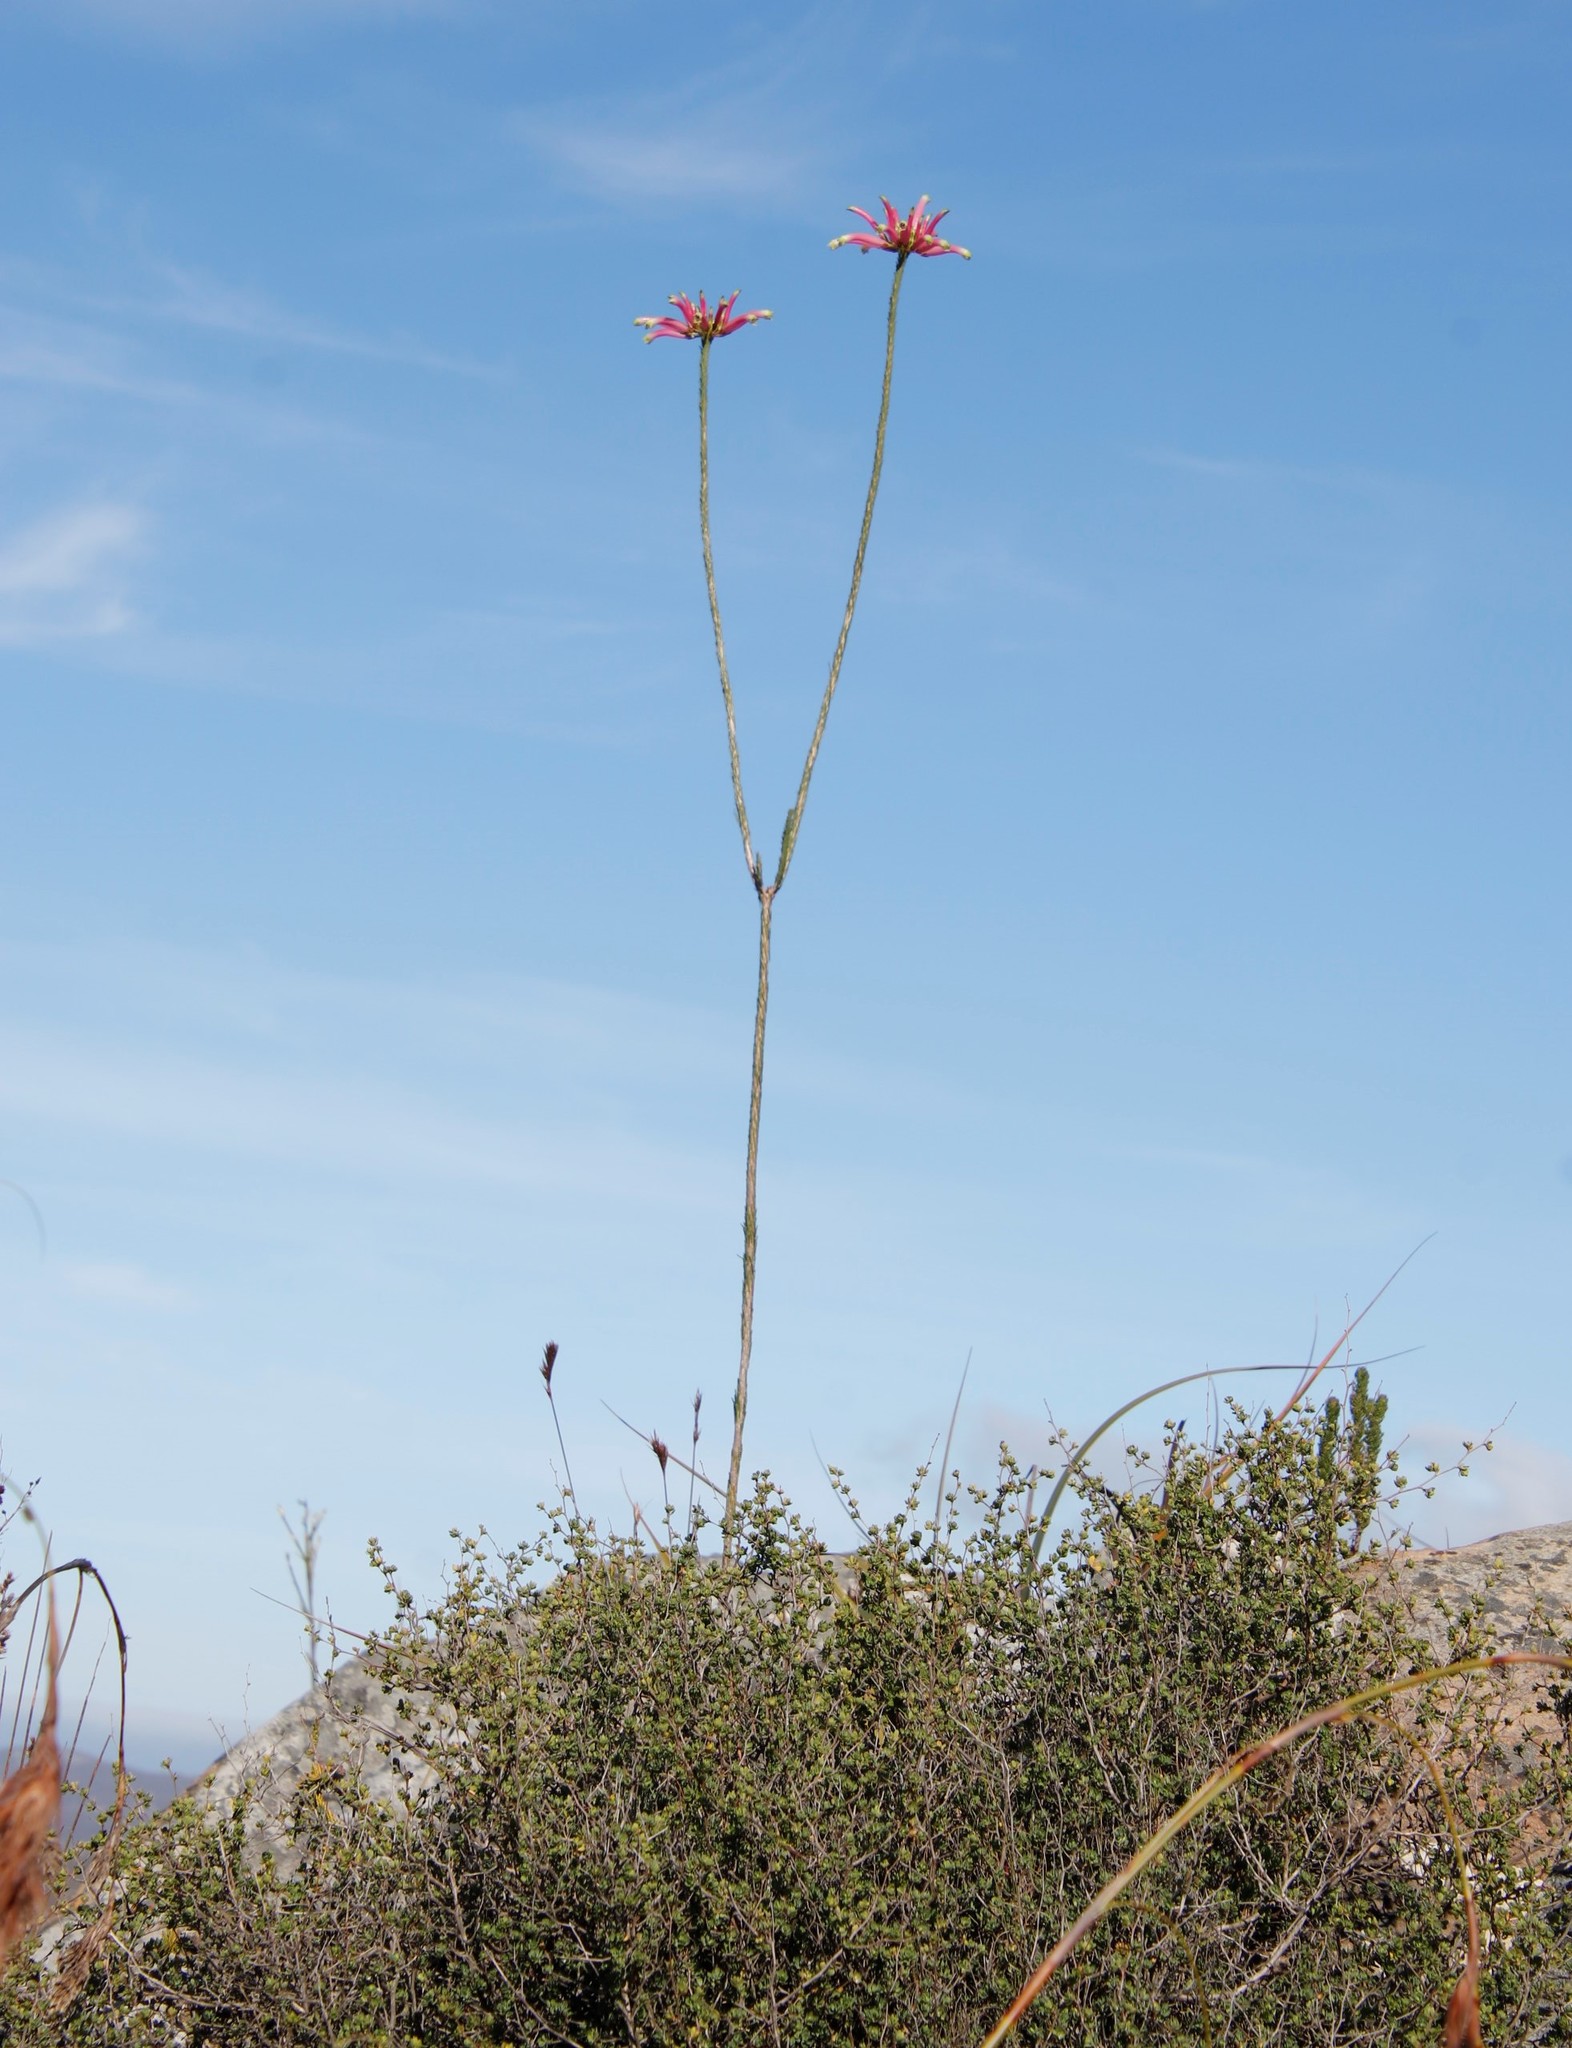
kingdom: Plantae
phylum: Tracheophyta
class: Magnoliopsida
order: Ericales
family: Ericaceae
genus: Erica
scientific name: Erica fascicularis
